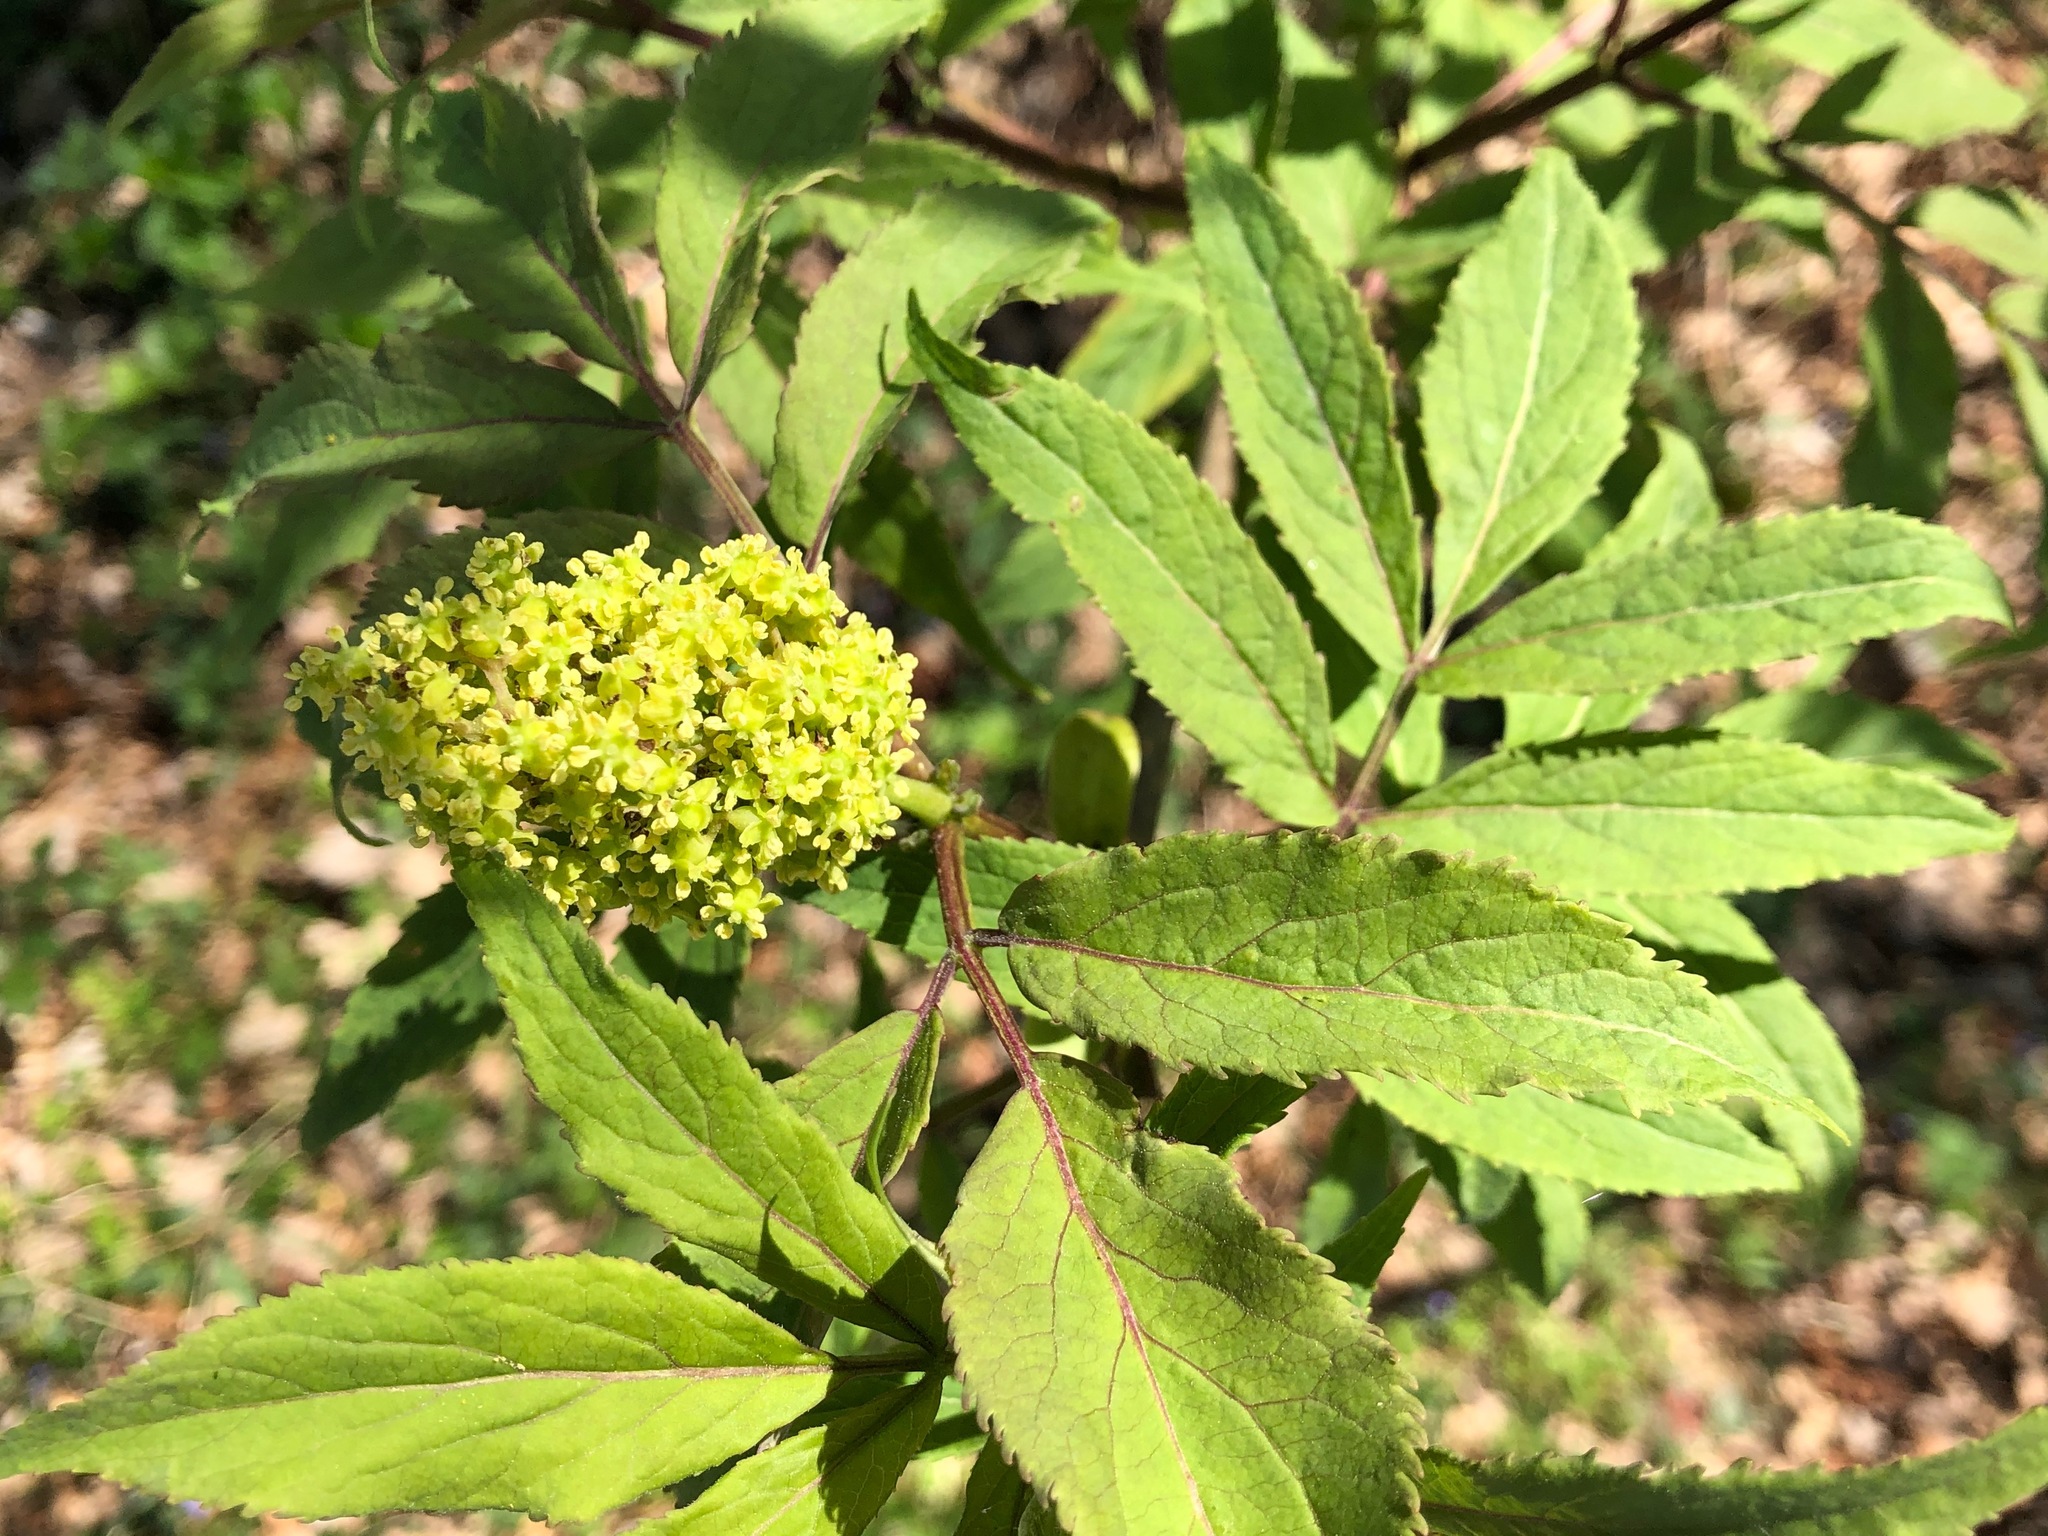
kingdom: Plantae
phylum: Tracheophyta
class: Magnoliopsida
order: Dipsacales
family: Viburnaceae
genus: Sambucus
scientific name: Sambucus racemosa
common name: Red-berried elder
